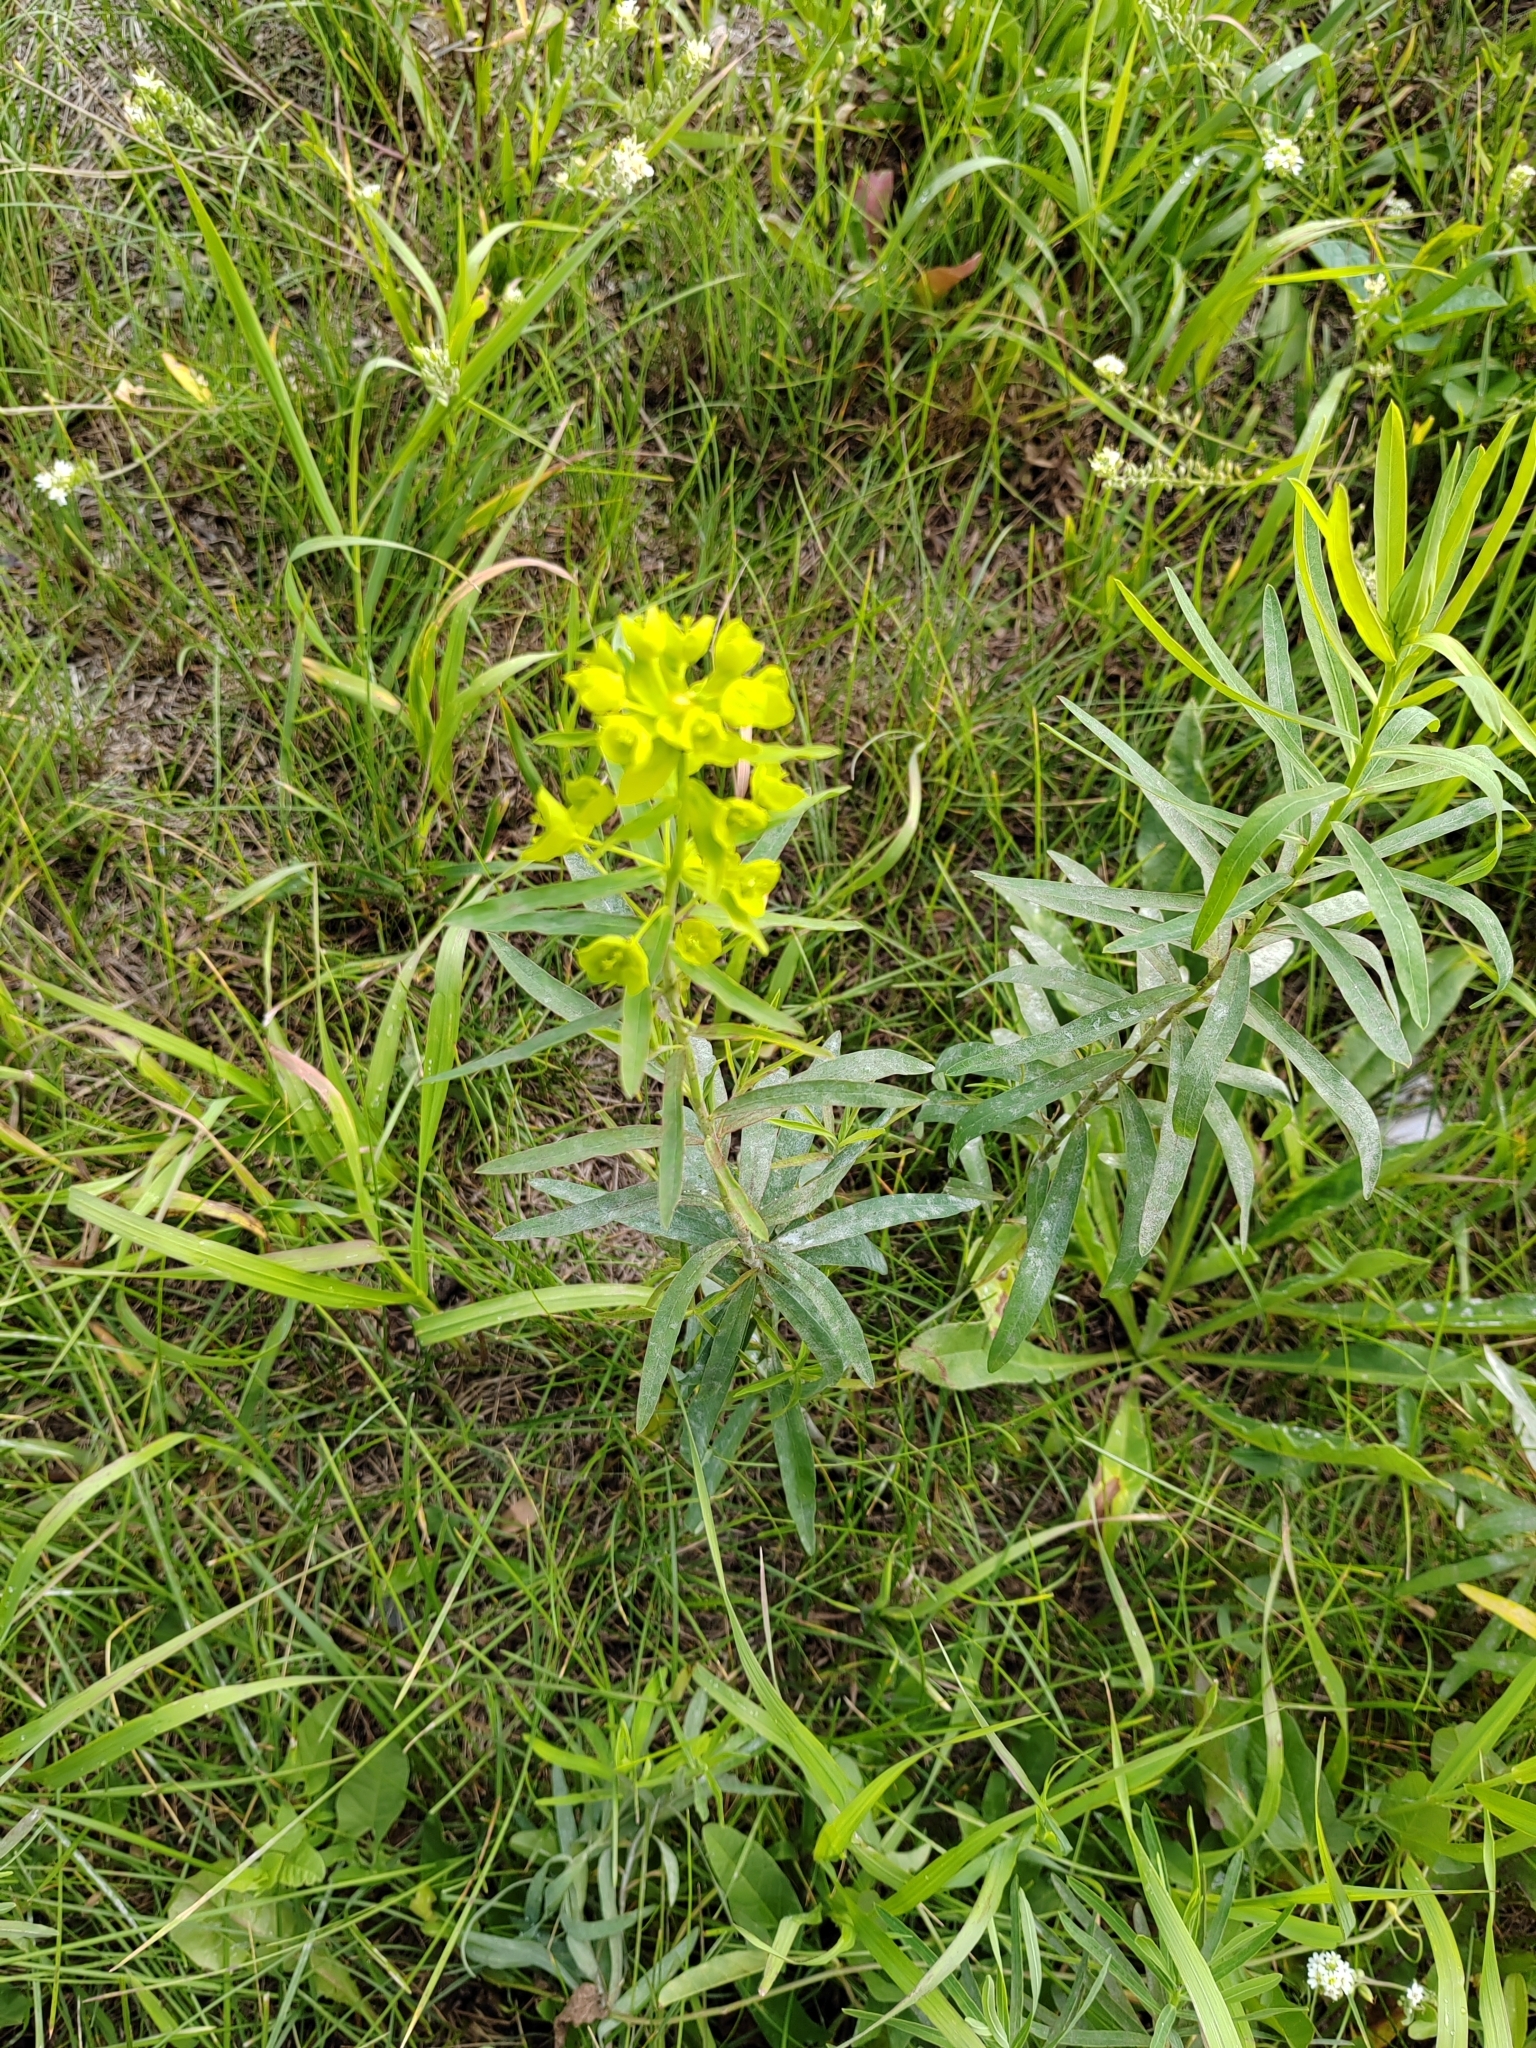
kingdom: Plantae
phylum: Tracheophyta
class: Magnoliopsida
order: Malpighiales
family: Euphorbiaceae
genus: Euphorbia
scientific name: Euphorbia virgata
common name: Leafy spurge
